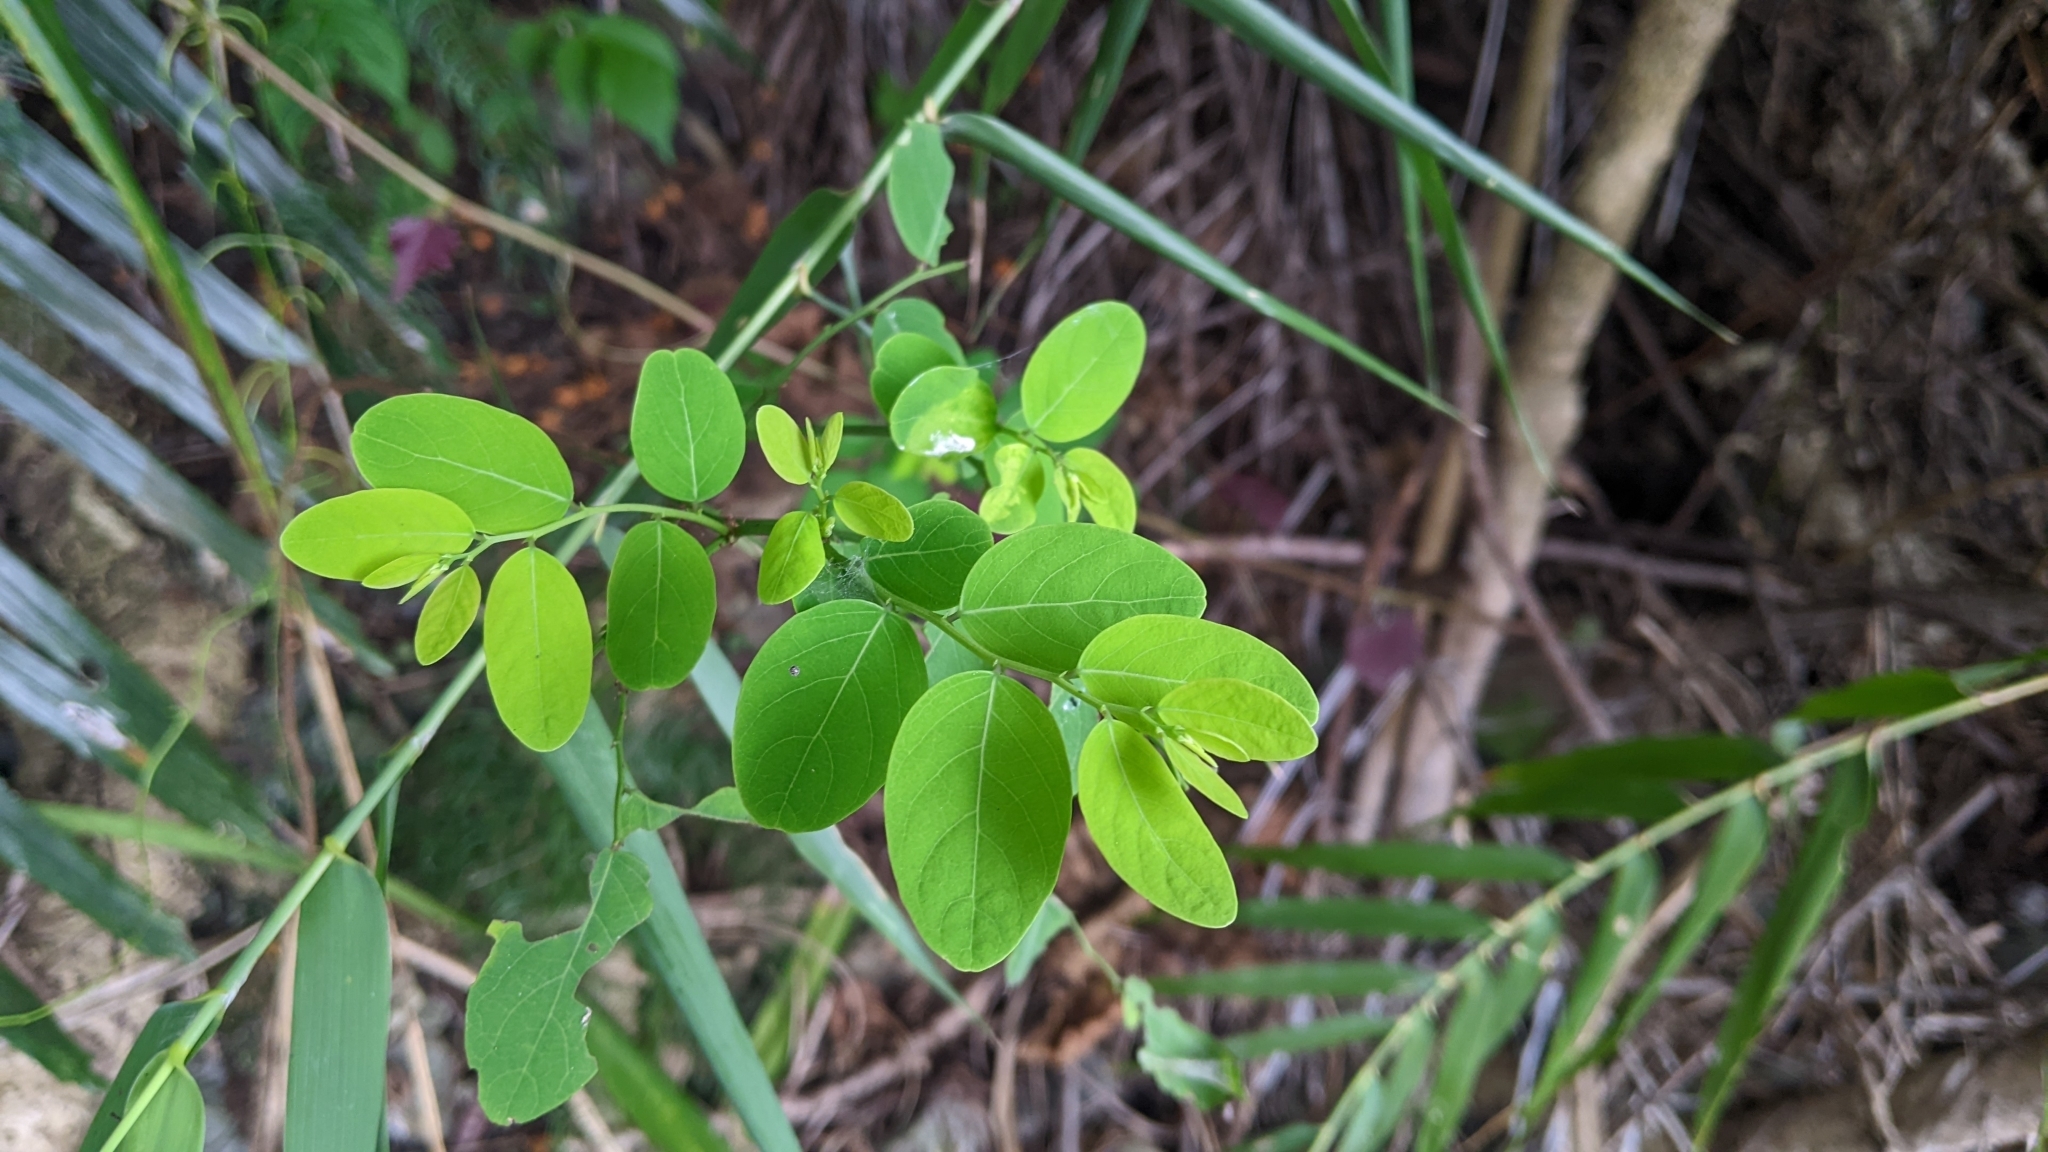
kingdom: Plantae
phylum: Tracheophyta
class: Magnoliopsida
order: Malpighiales
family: Phyllanthaceae
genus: Phyllanthus
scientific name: Phyllanthus oligospermus
